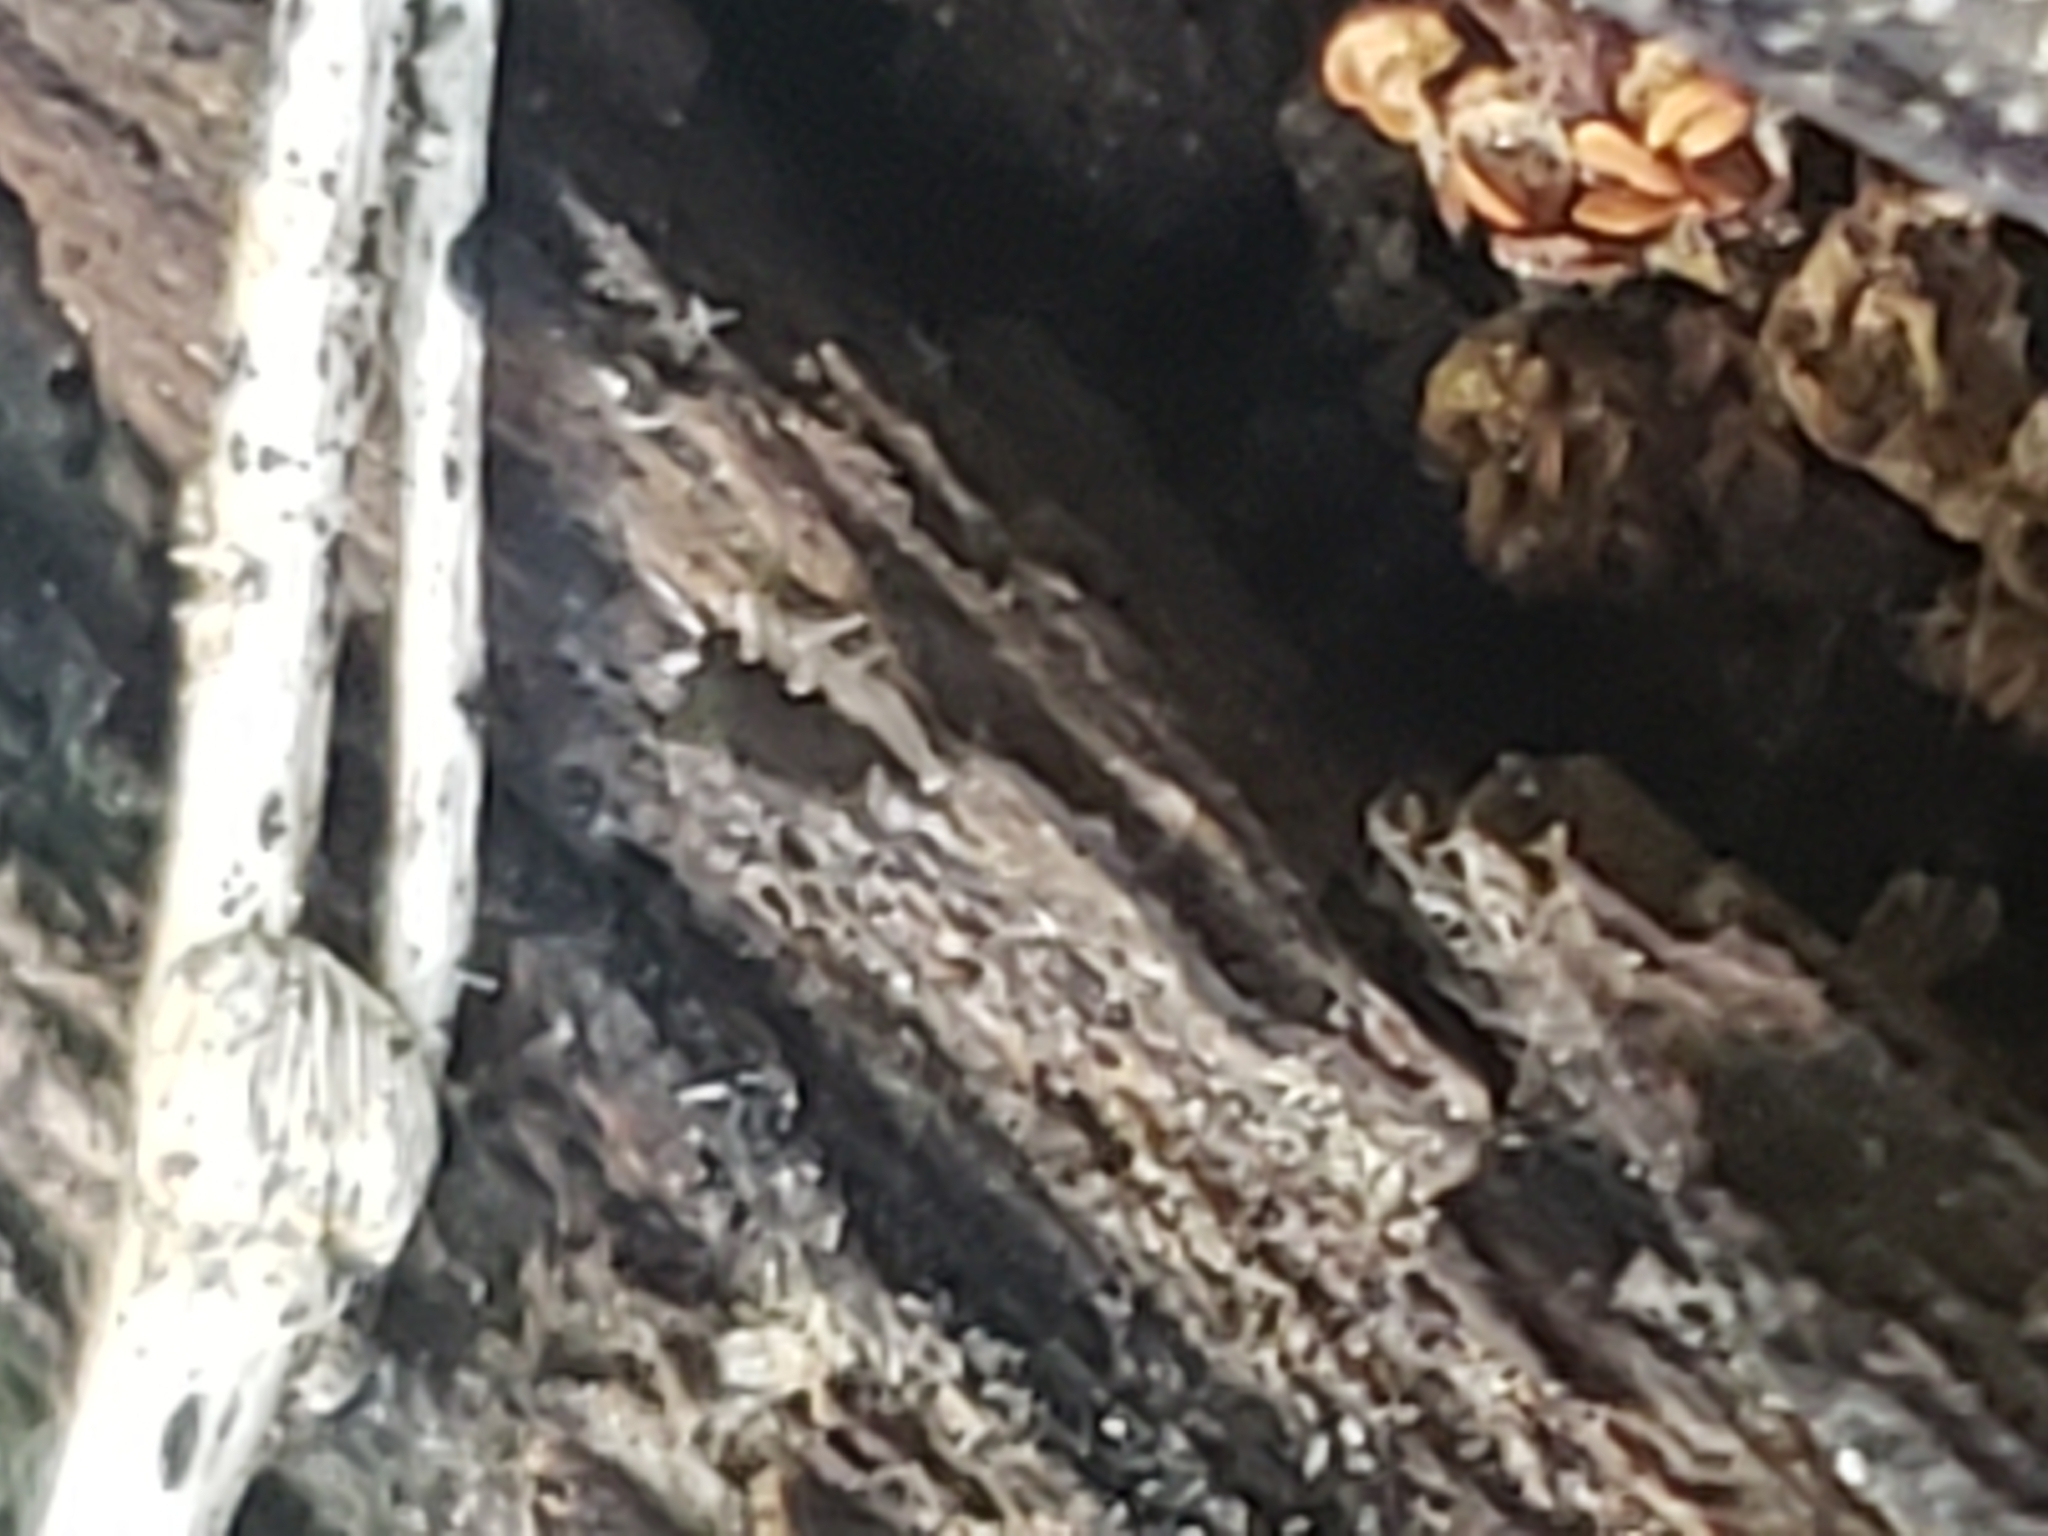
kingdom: Animalia
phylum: Arthropoda
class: Collembola
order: Entomobryomorpha
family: Entomobryidae
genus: Lepidocyrtus
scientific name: Lepidocyrtus paradoxus
